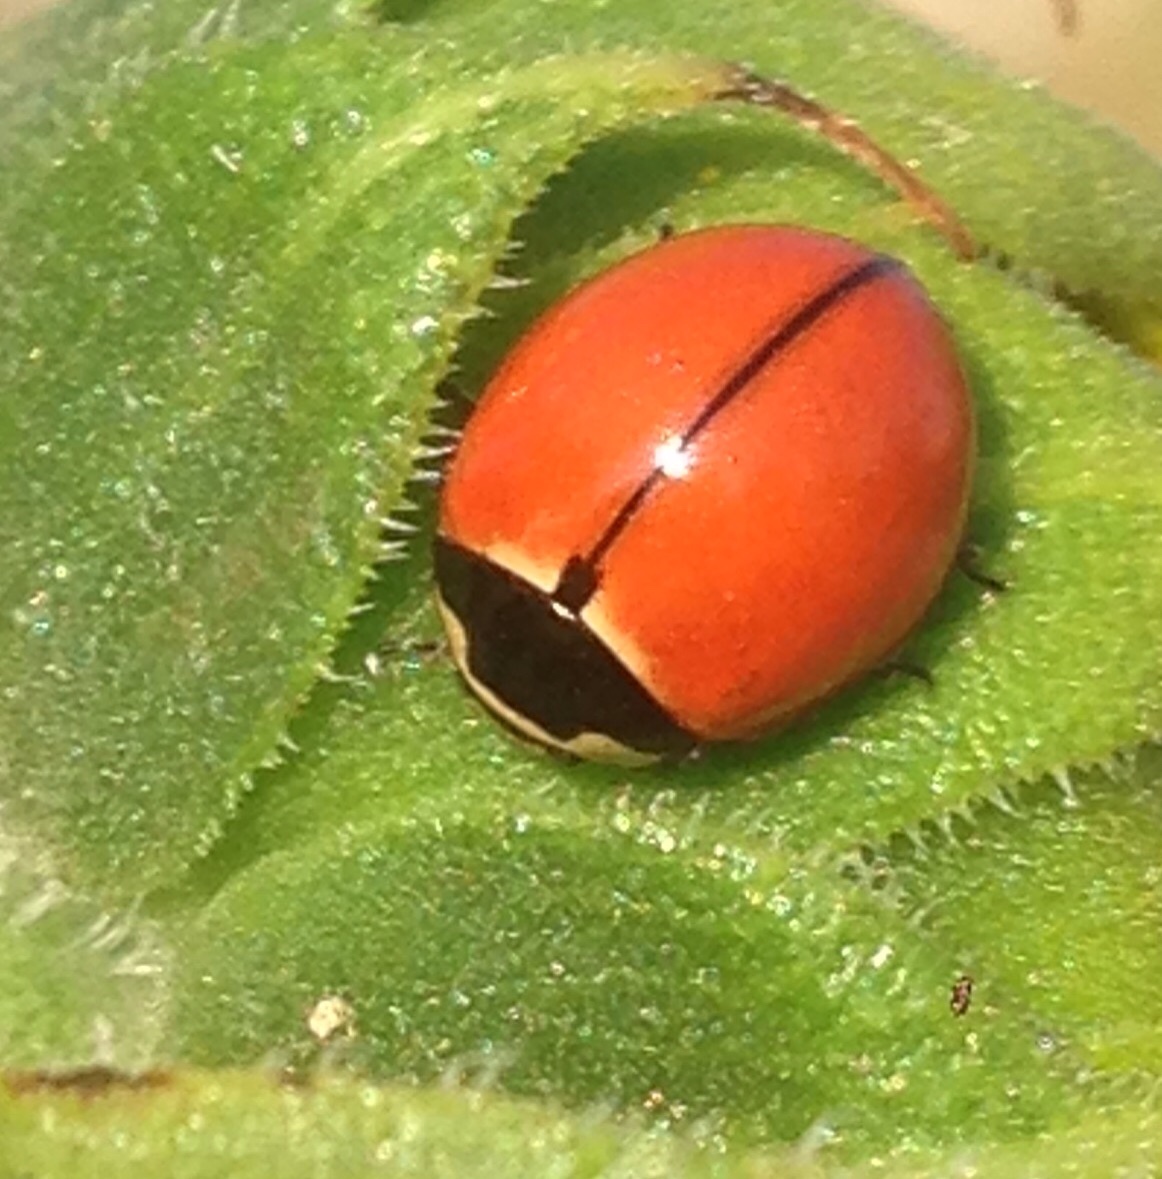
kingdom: Animalia
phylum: Arthropoda
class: Insecta
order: Coleoptera
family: Coccinellidae
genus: Coccinella
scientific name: Coccinella novemnotata
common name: Nine-spotted lady beetle
